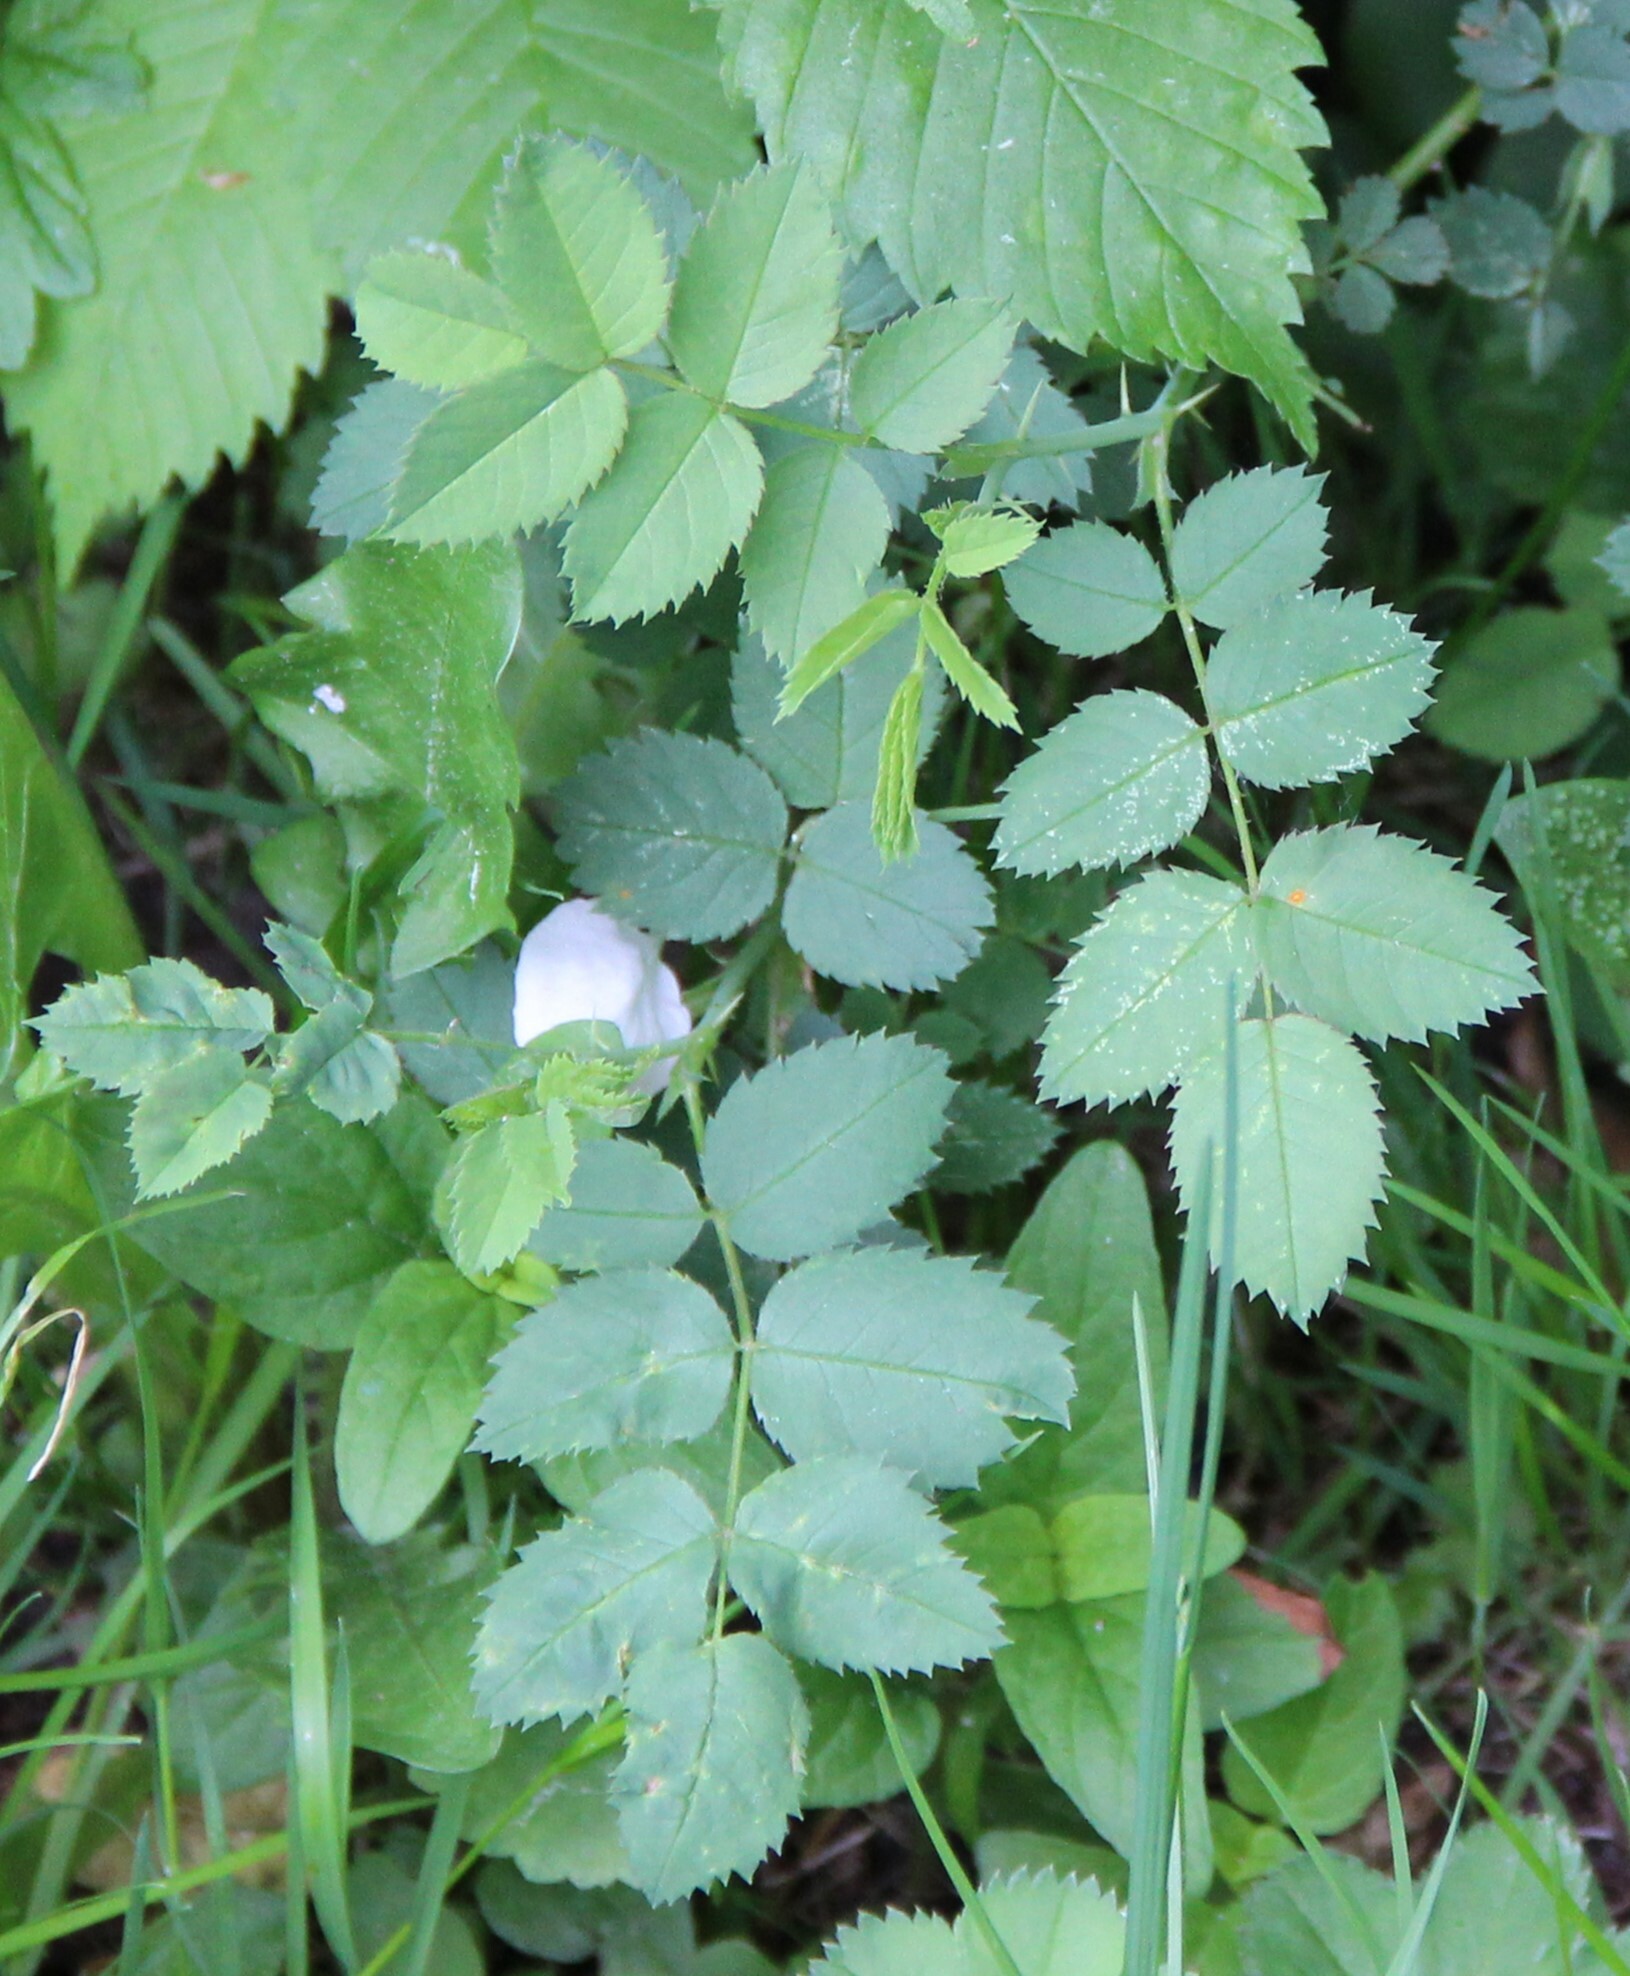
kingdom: Plantae
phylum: Tracheophyta
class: Magnoliopsida
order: Rosales
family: Rosaceae
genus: Rosa
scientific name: Rosa spinosissima
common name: Burnet rose
